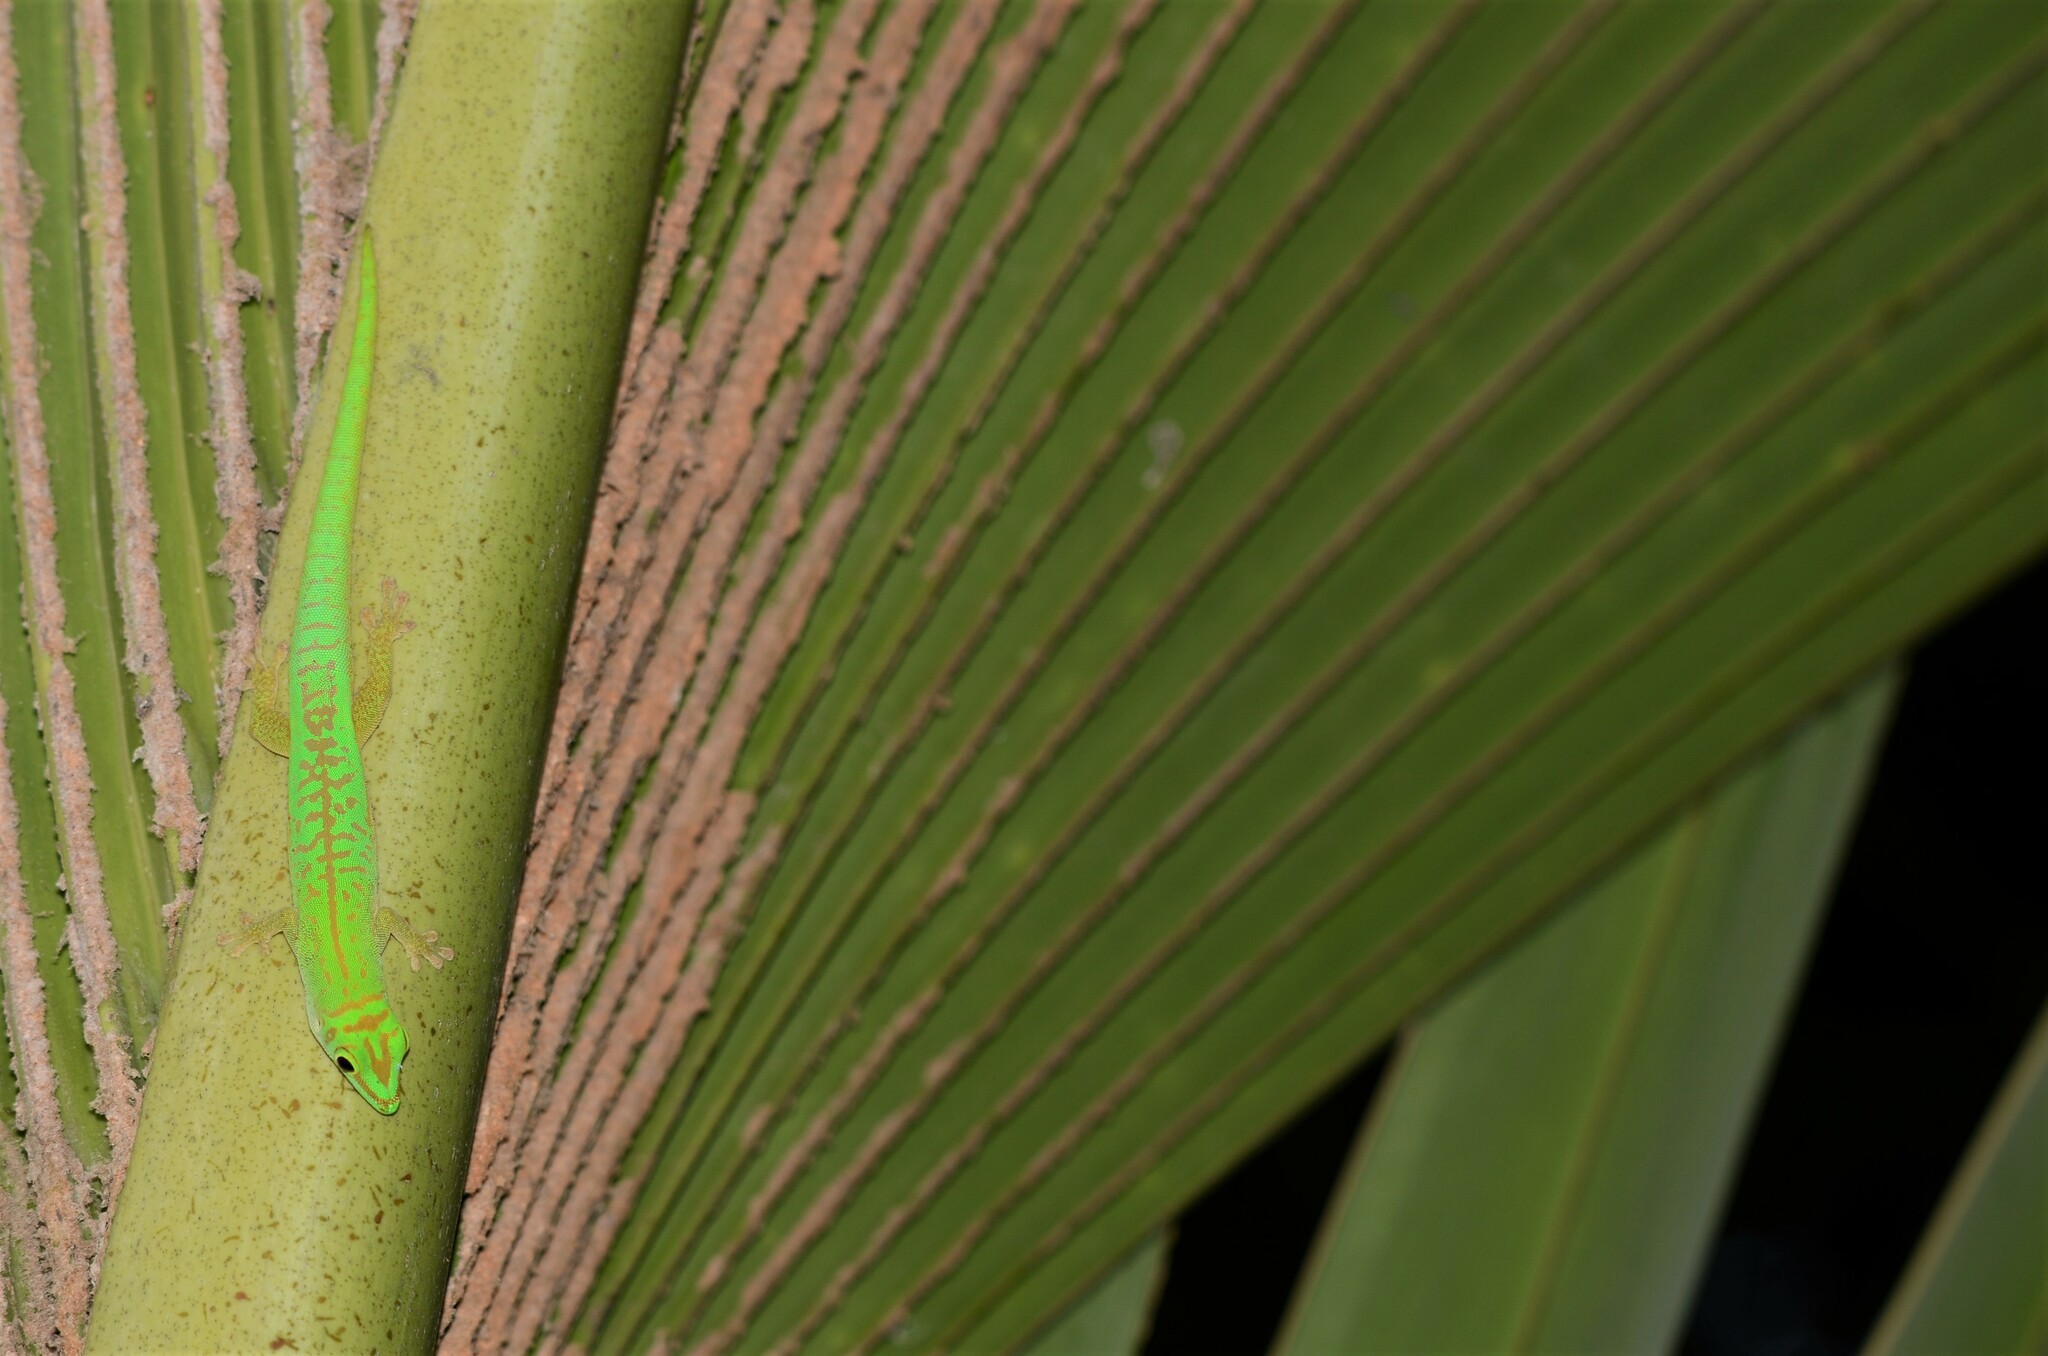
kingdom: Animalia
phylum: Chordata
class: Squamata
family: Gekkonidae
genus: Phelsuma
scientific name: Phelsuma astriata
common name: Seychelles day gecko
